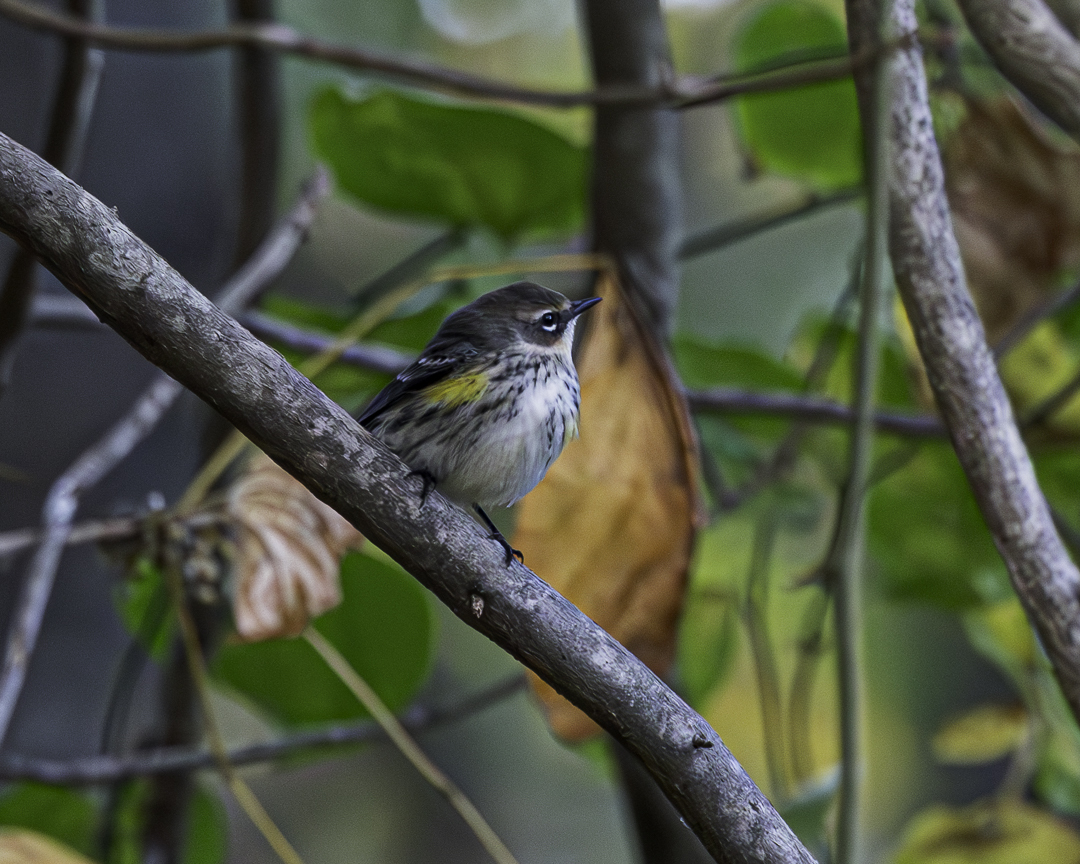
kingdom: Animalia
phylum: Chordata
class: Aves
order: Passeriformes
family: Parulidae
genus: Setophaga
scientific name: Setophaga coronata
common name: Myrtle warbler
